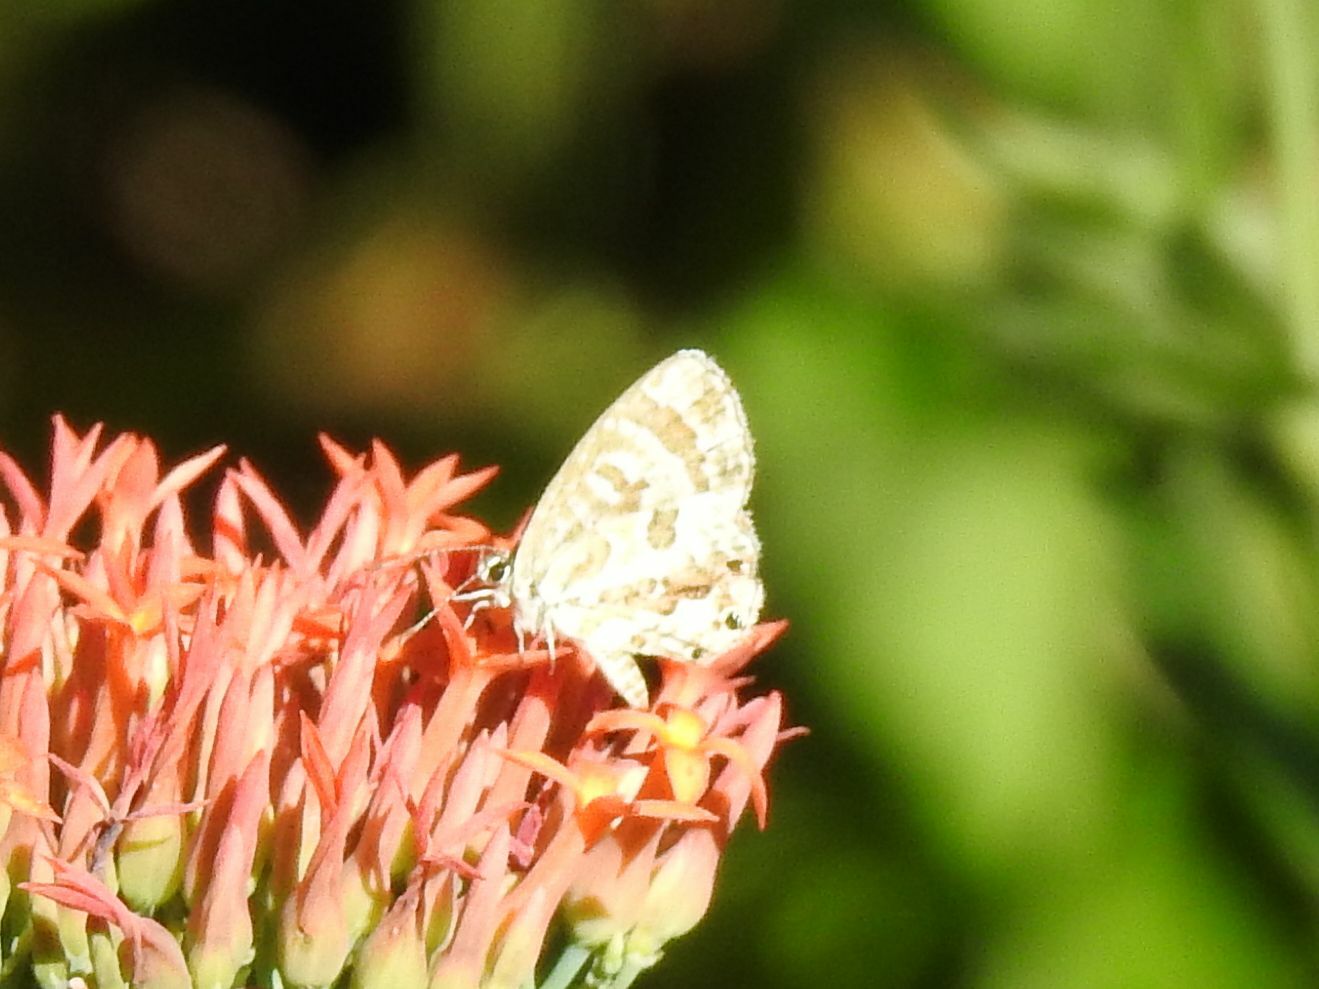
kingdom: Animalia
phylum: Arthropoda
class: Insecta
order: Lepidoptera
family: Lycaenidae
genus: Cacyreus
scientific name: Cacyreus marshalli
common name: Geranium bronze
